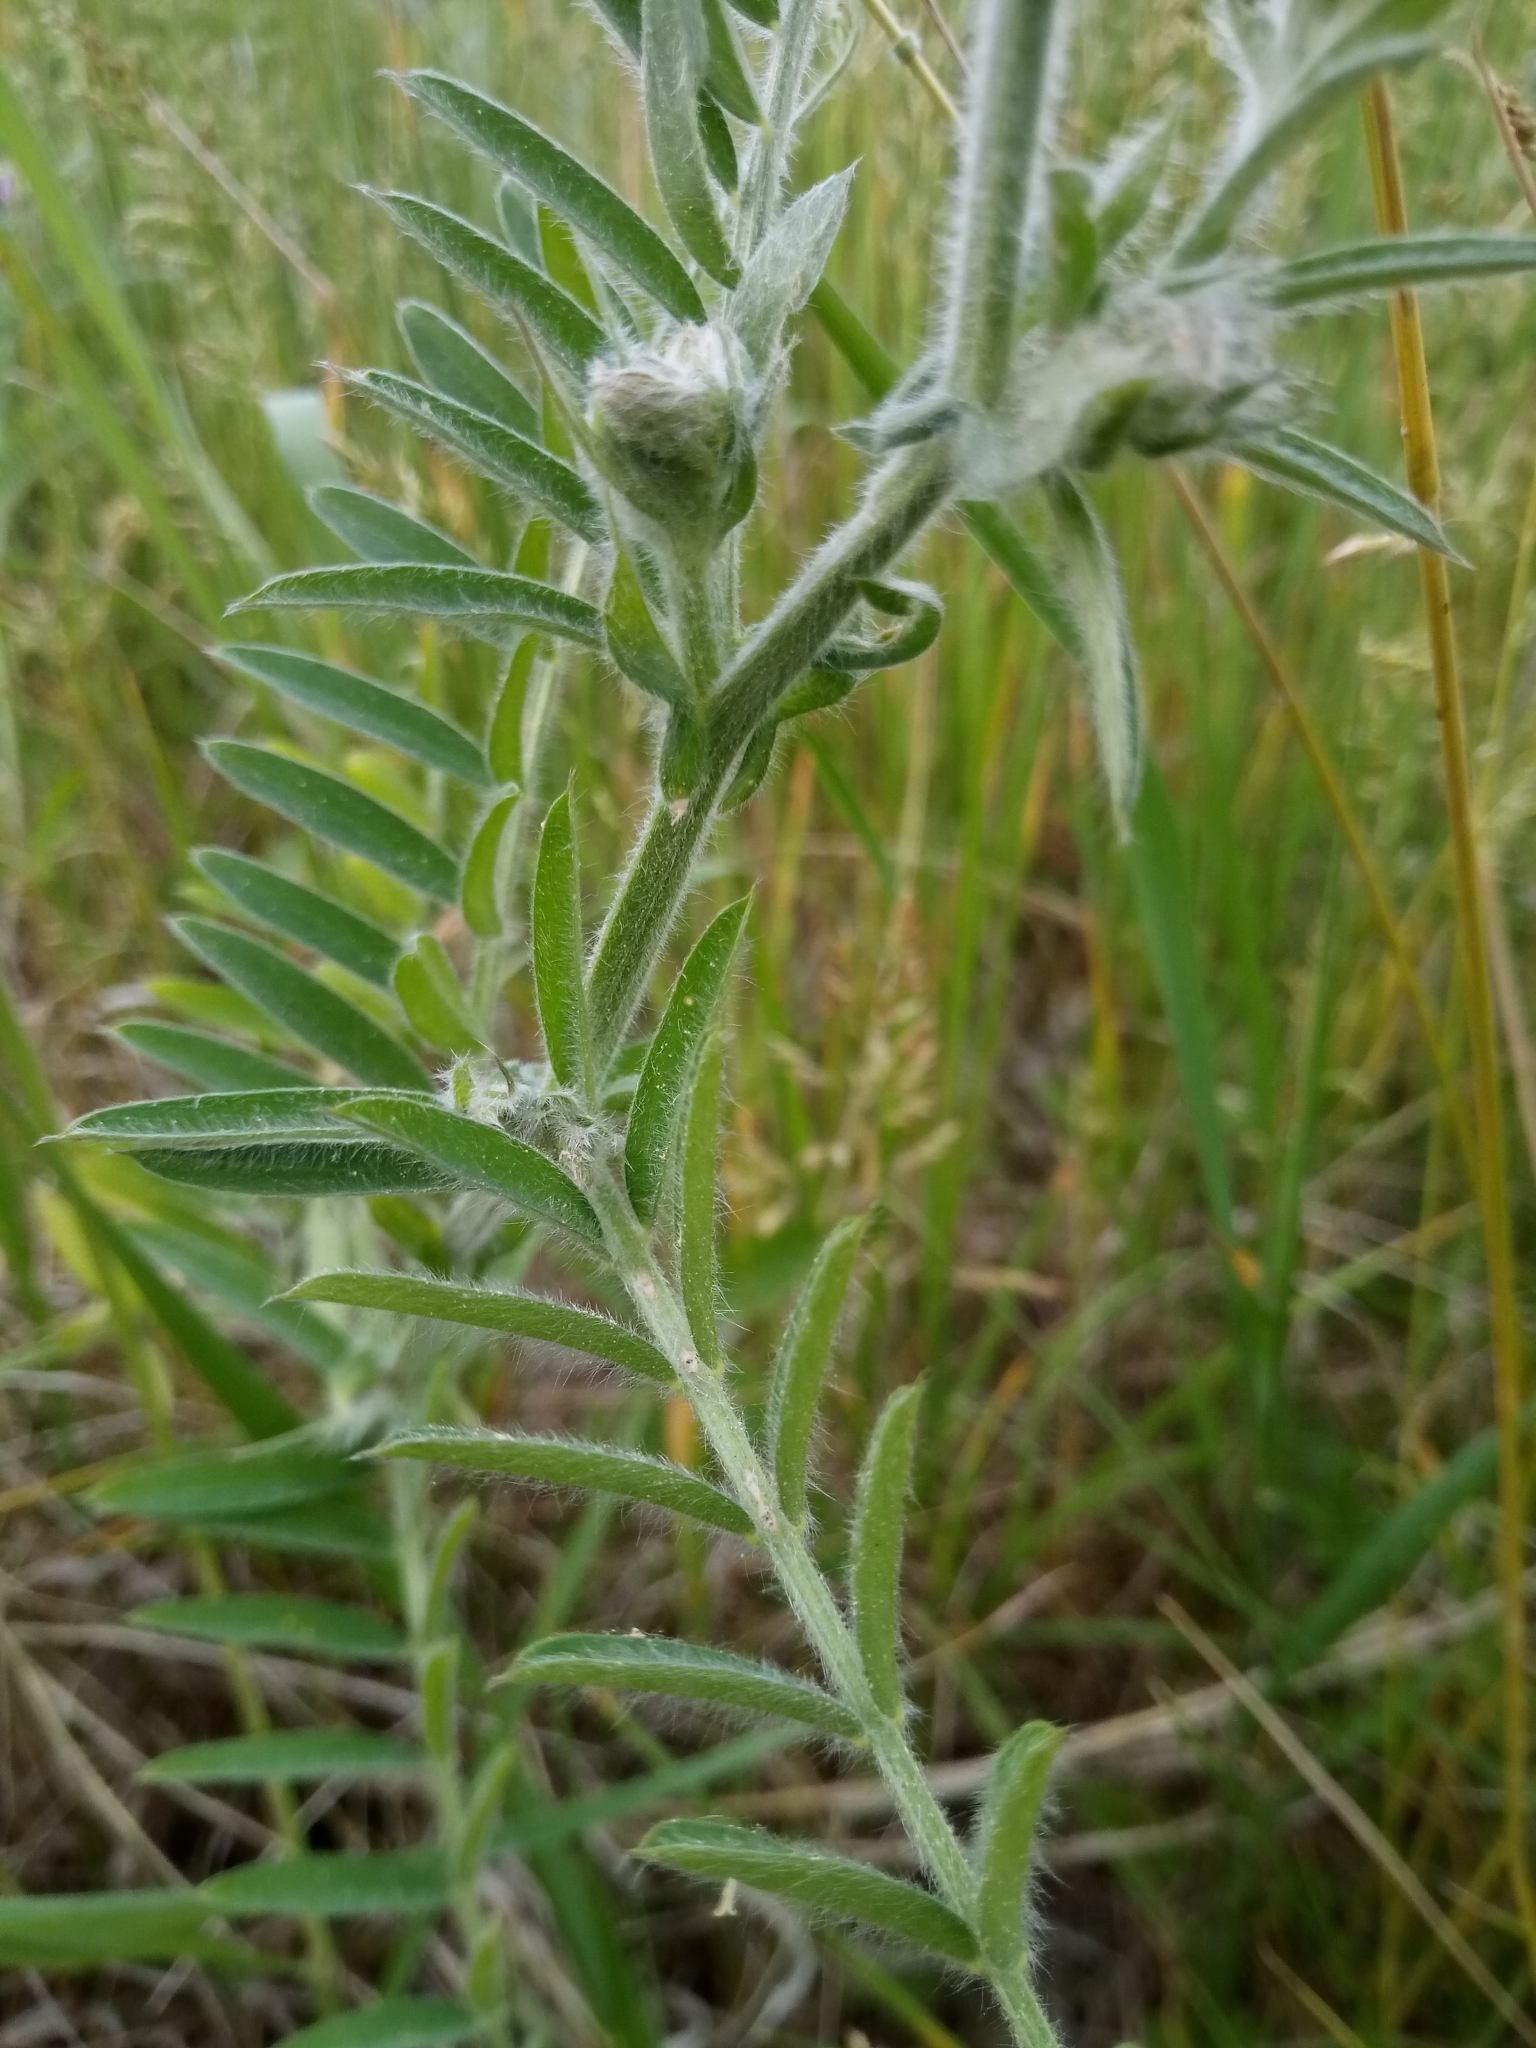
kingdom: Plantae
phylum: Tracheophyta
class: Magnoliopsida
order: Fabales
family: Fabaceae
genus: Vicia
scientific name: Vicia villosa
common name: Fodder vetch
